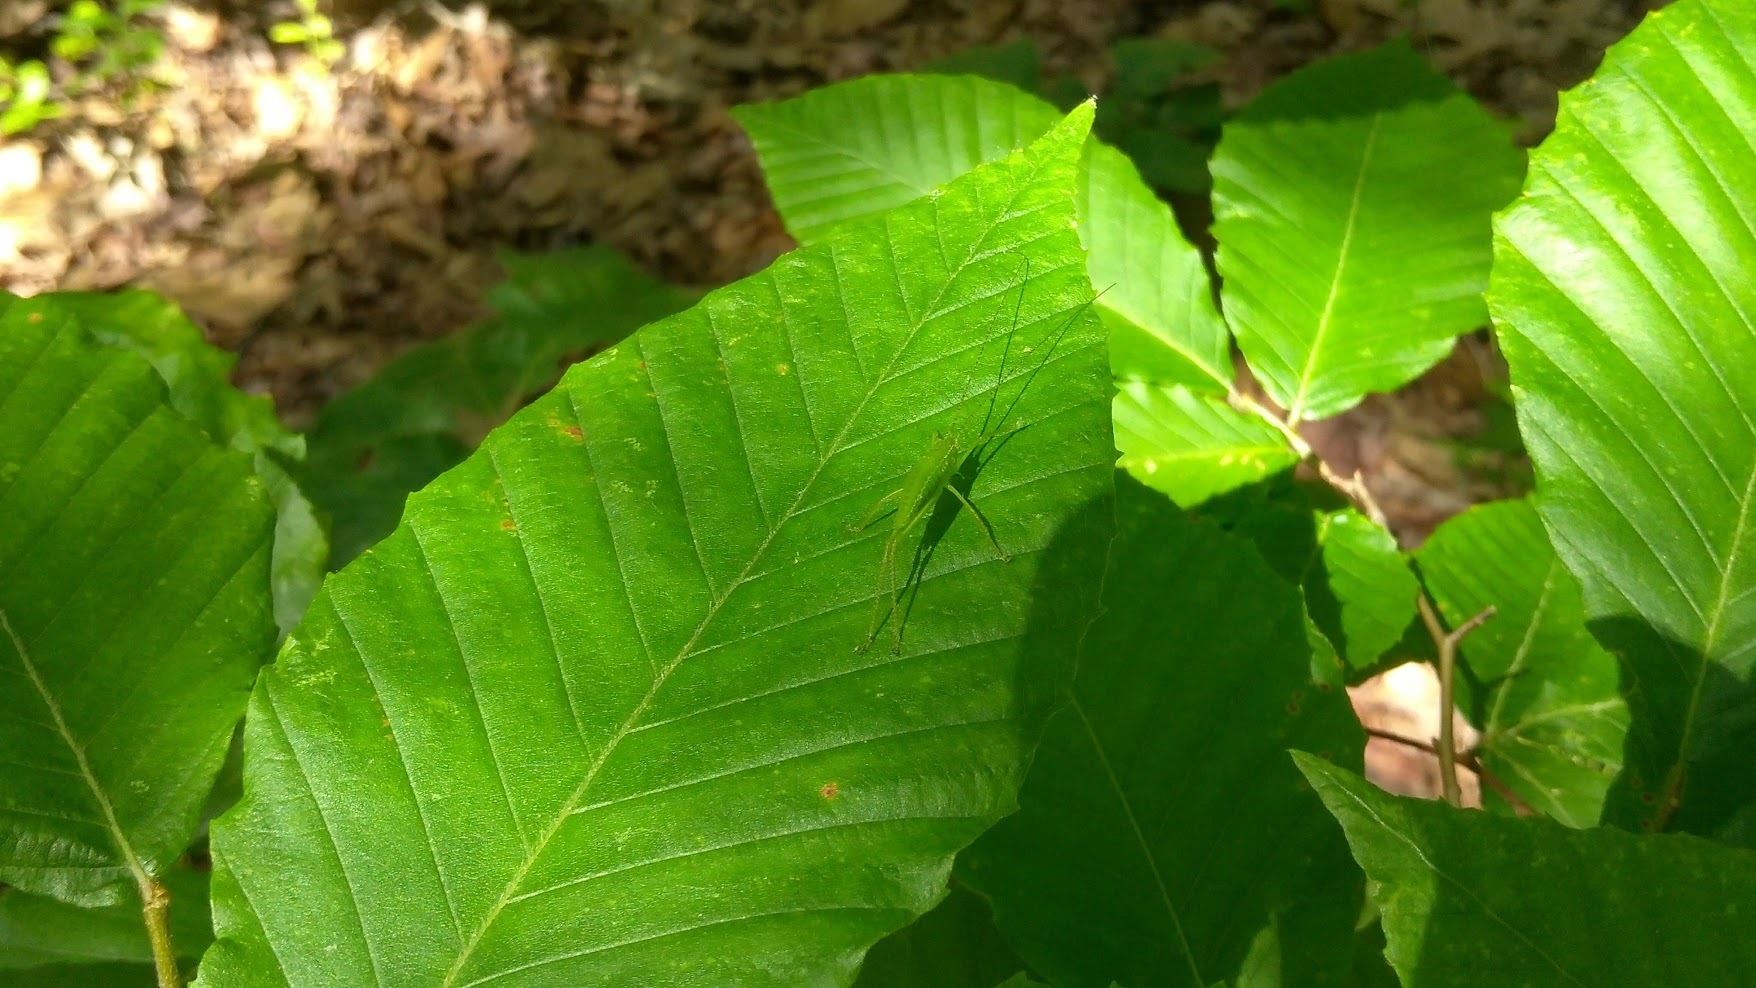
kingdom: Animalia
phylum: Arthropoda
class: Insecta
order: Orthoptera
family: Tettigoniidae
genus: Pterophylla
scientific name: Pterophylla camellifolia
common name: Common true katydid
